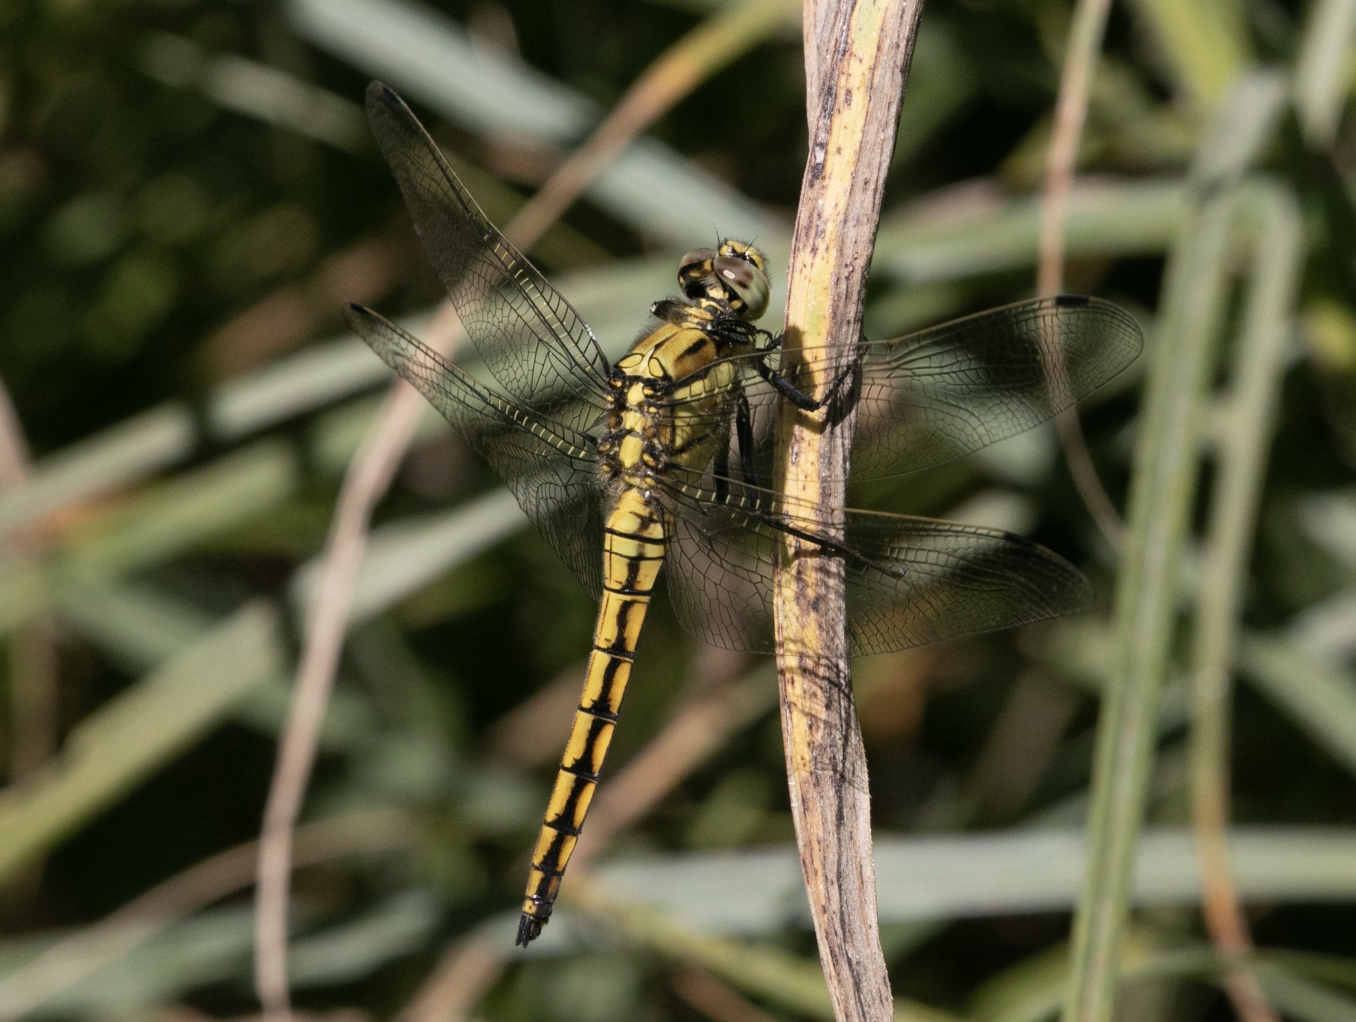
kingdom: Animalia
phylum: Arthropoda
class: Insecta
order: Odonata
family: Libellulidae
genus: Orthetrum
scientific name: Orthetrum cancellatum
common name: Black-tailed skimmer
